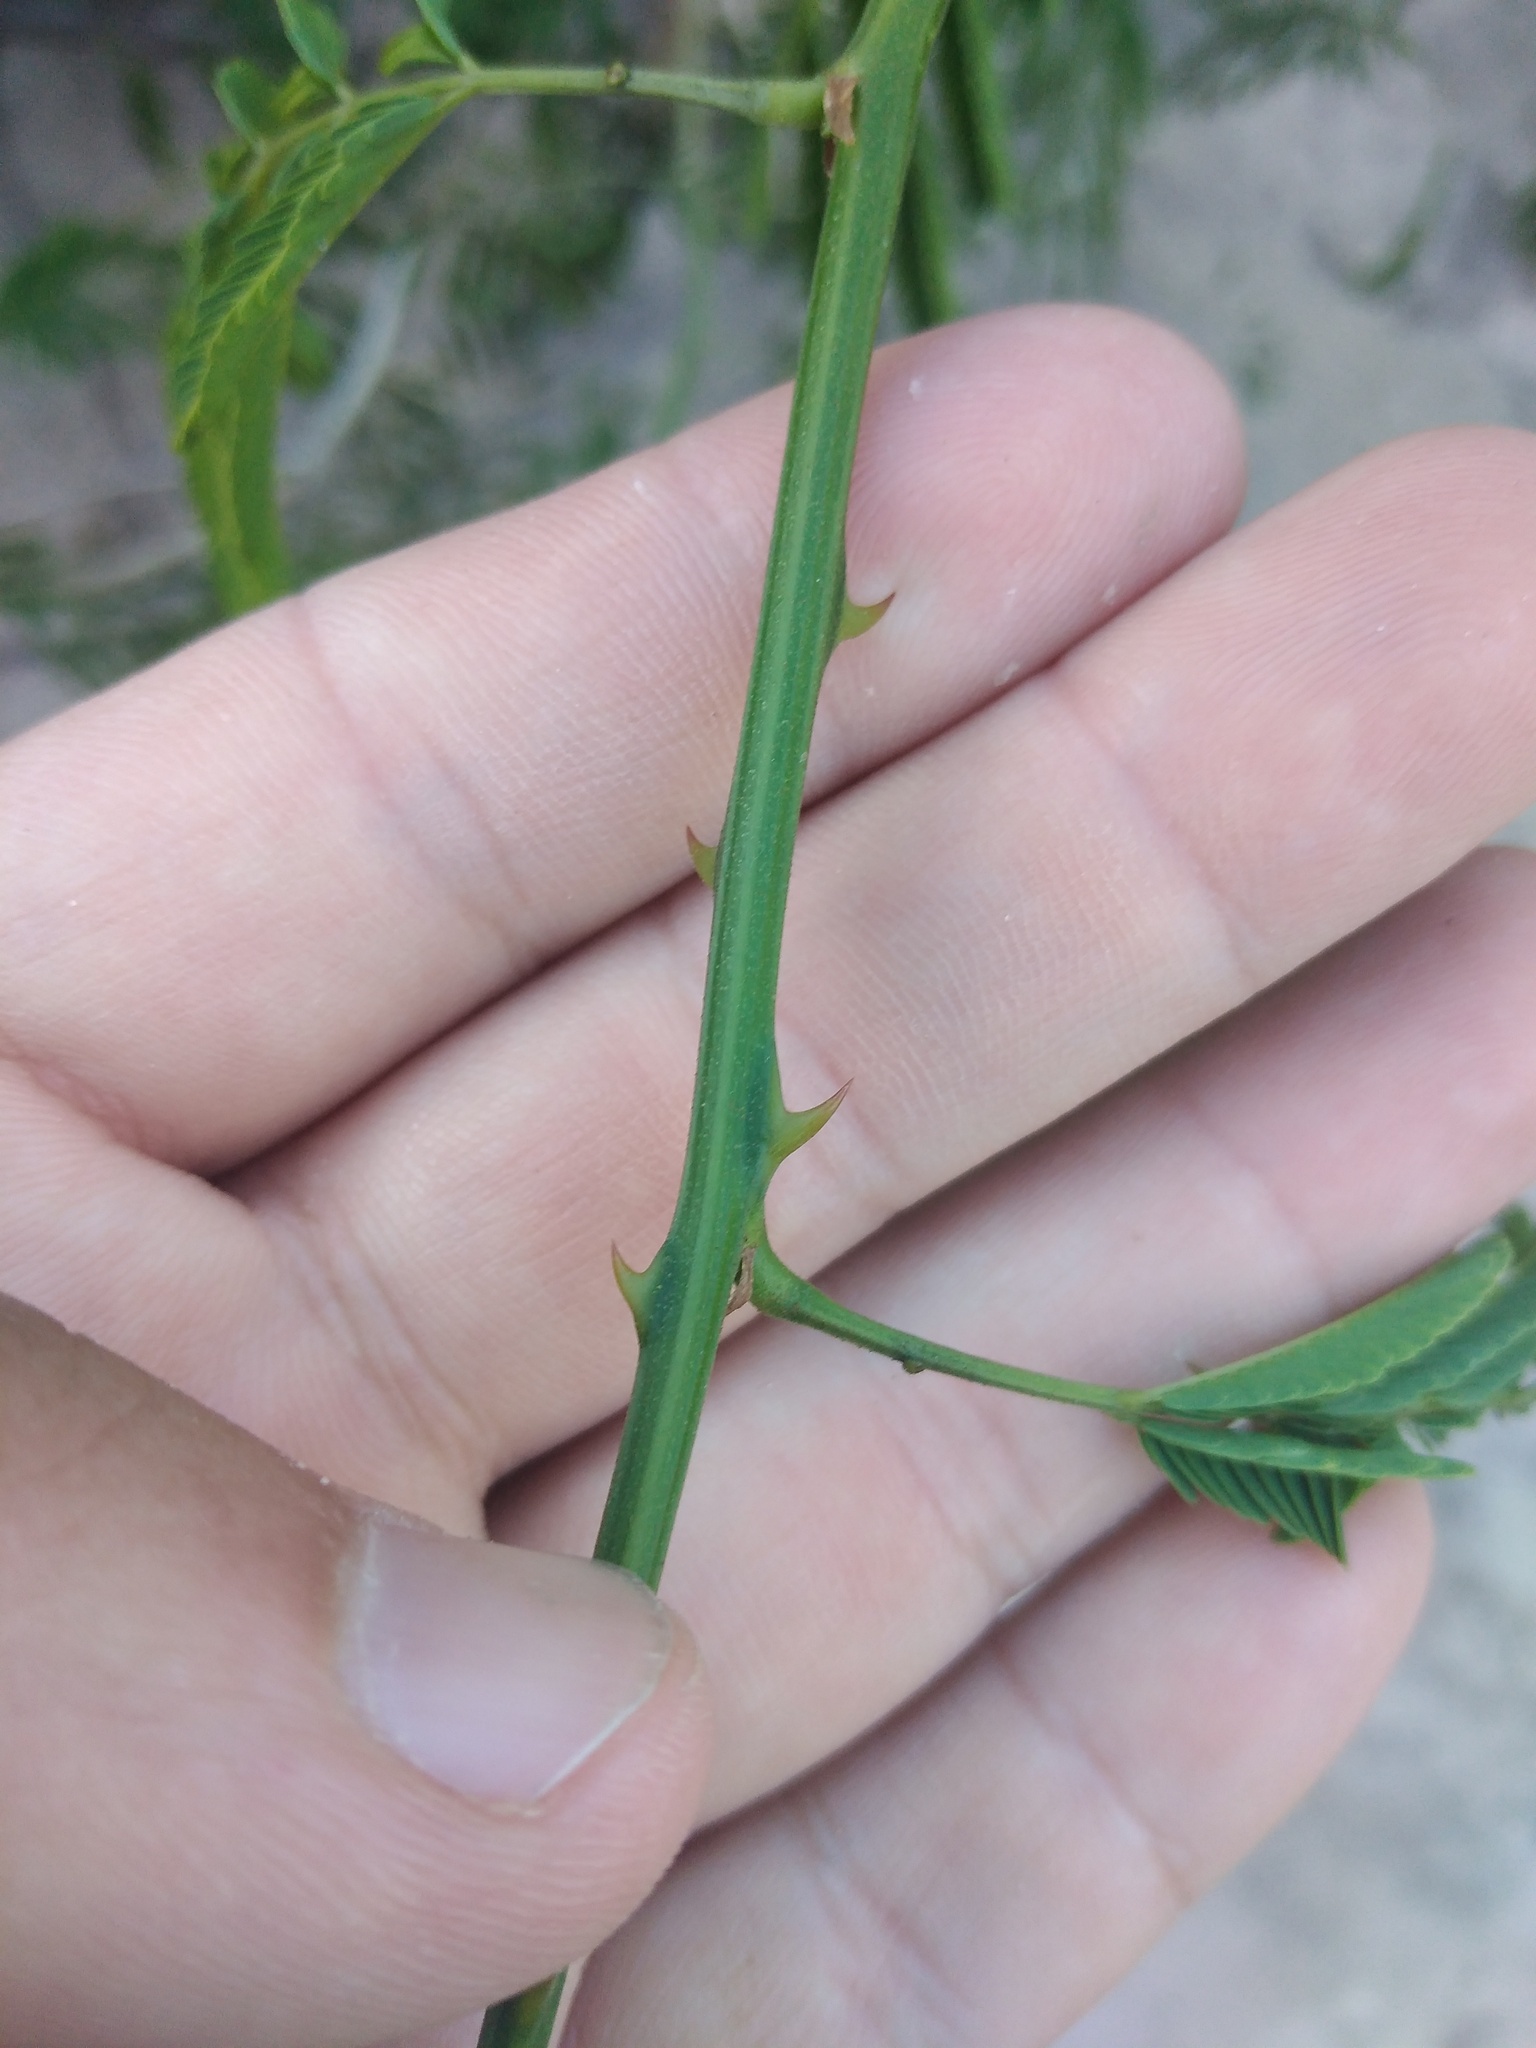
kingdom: Plantae
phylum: Tracheophyta
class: Magnoliopsida
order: Fabales
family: Fabaceae
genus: Senegalia
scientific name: Senegalia bonariensis
